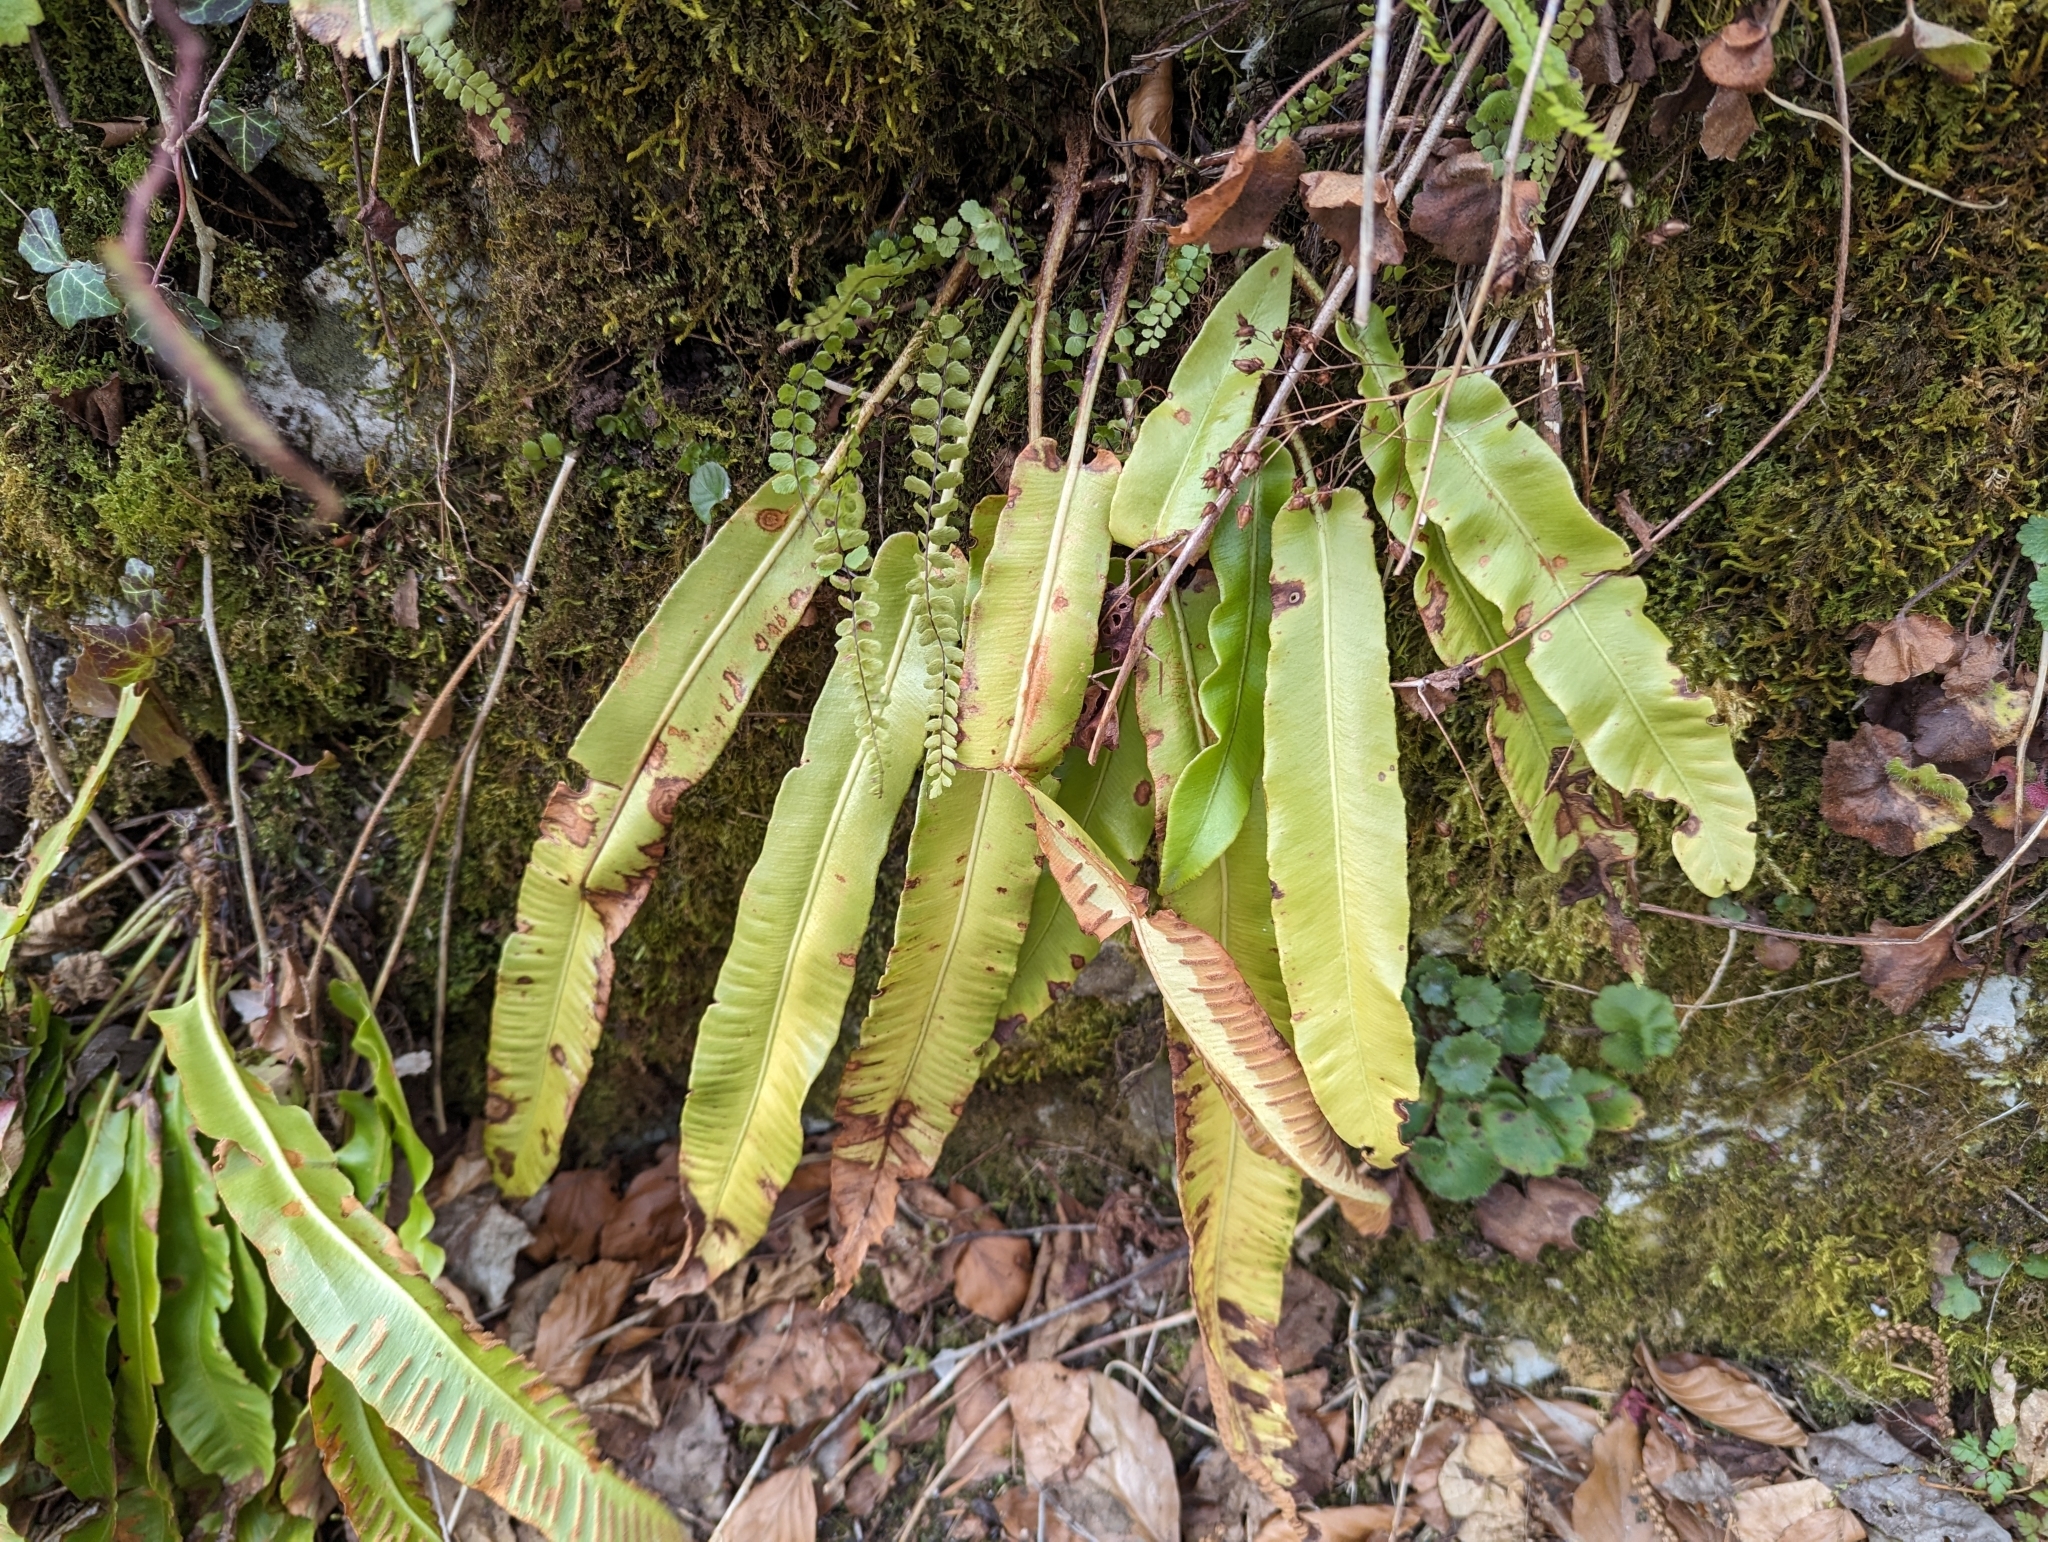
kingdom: Plantae
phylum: Tracheophyta
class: Polypodiopsida
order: Polypodiales
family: Aspleniaceae
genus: Asplenium
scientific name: Asplenium scolopendrium
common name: Hart's-tongue fern
